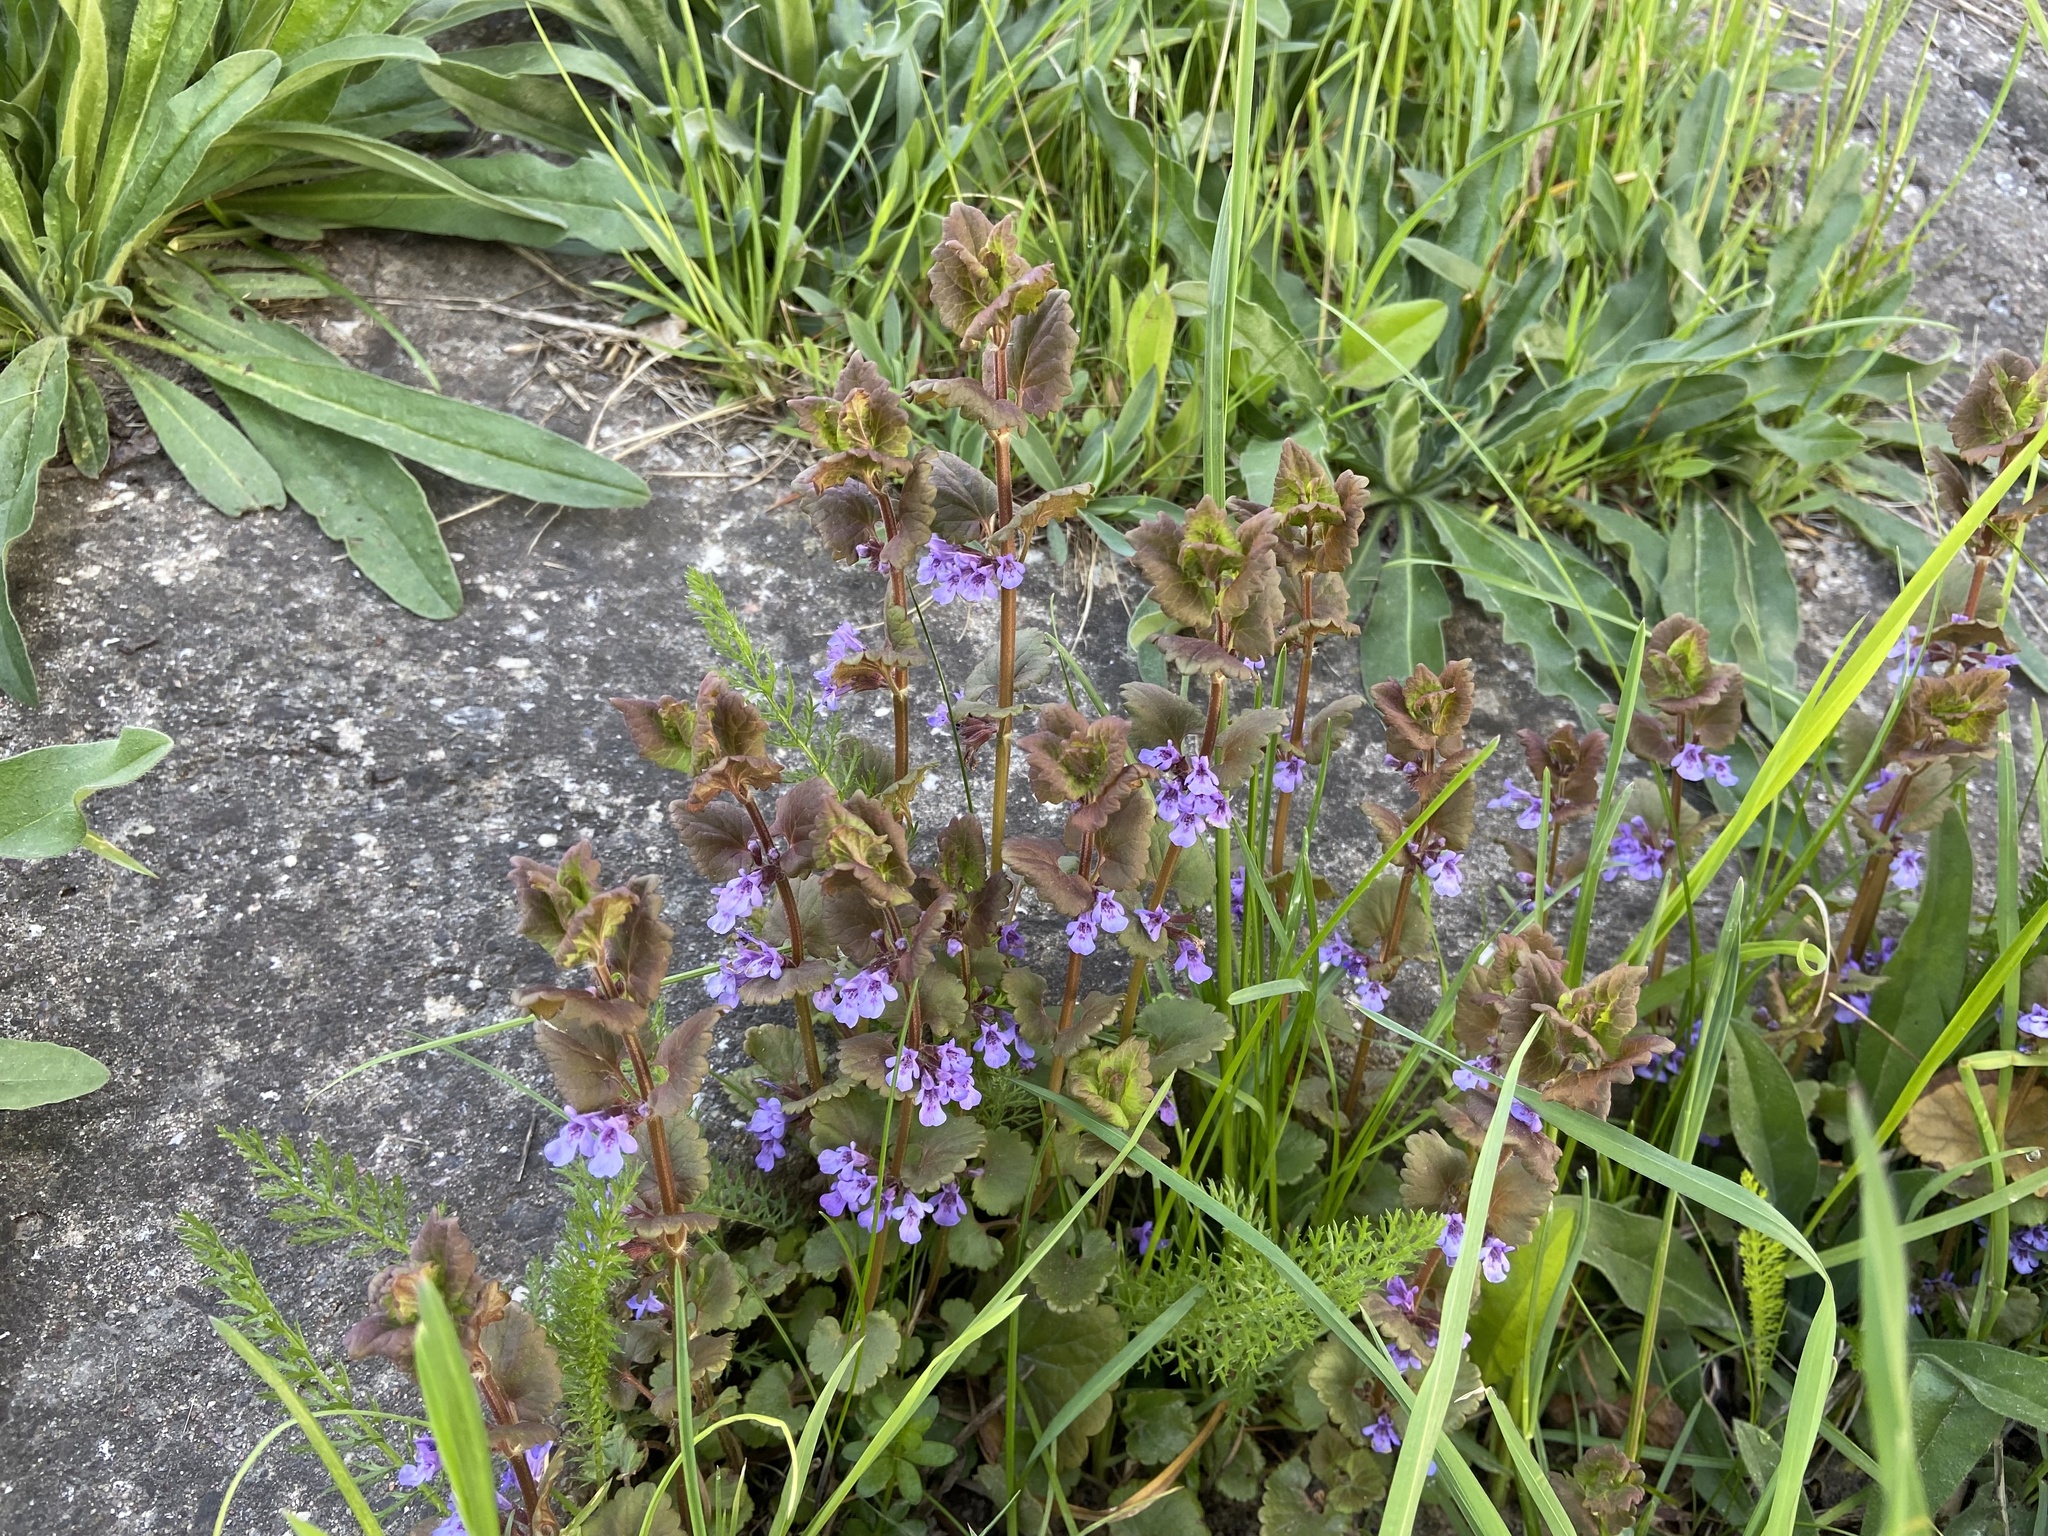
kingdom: Plantae
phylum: Tracheophyta
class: Magnoliopsida
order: Lamiales
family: Lamiaceae
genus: Glechoma
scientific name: Glechoma hederacea
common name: Ground ivy
